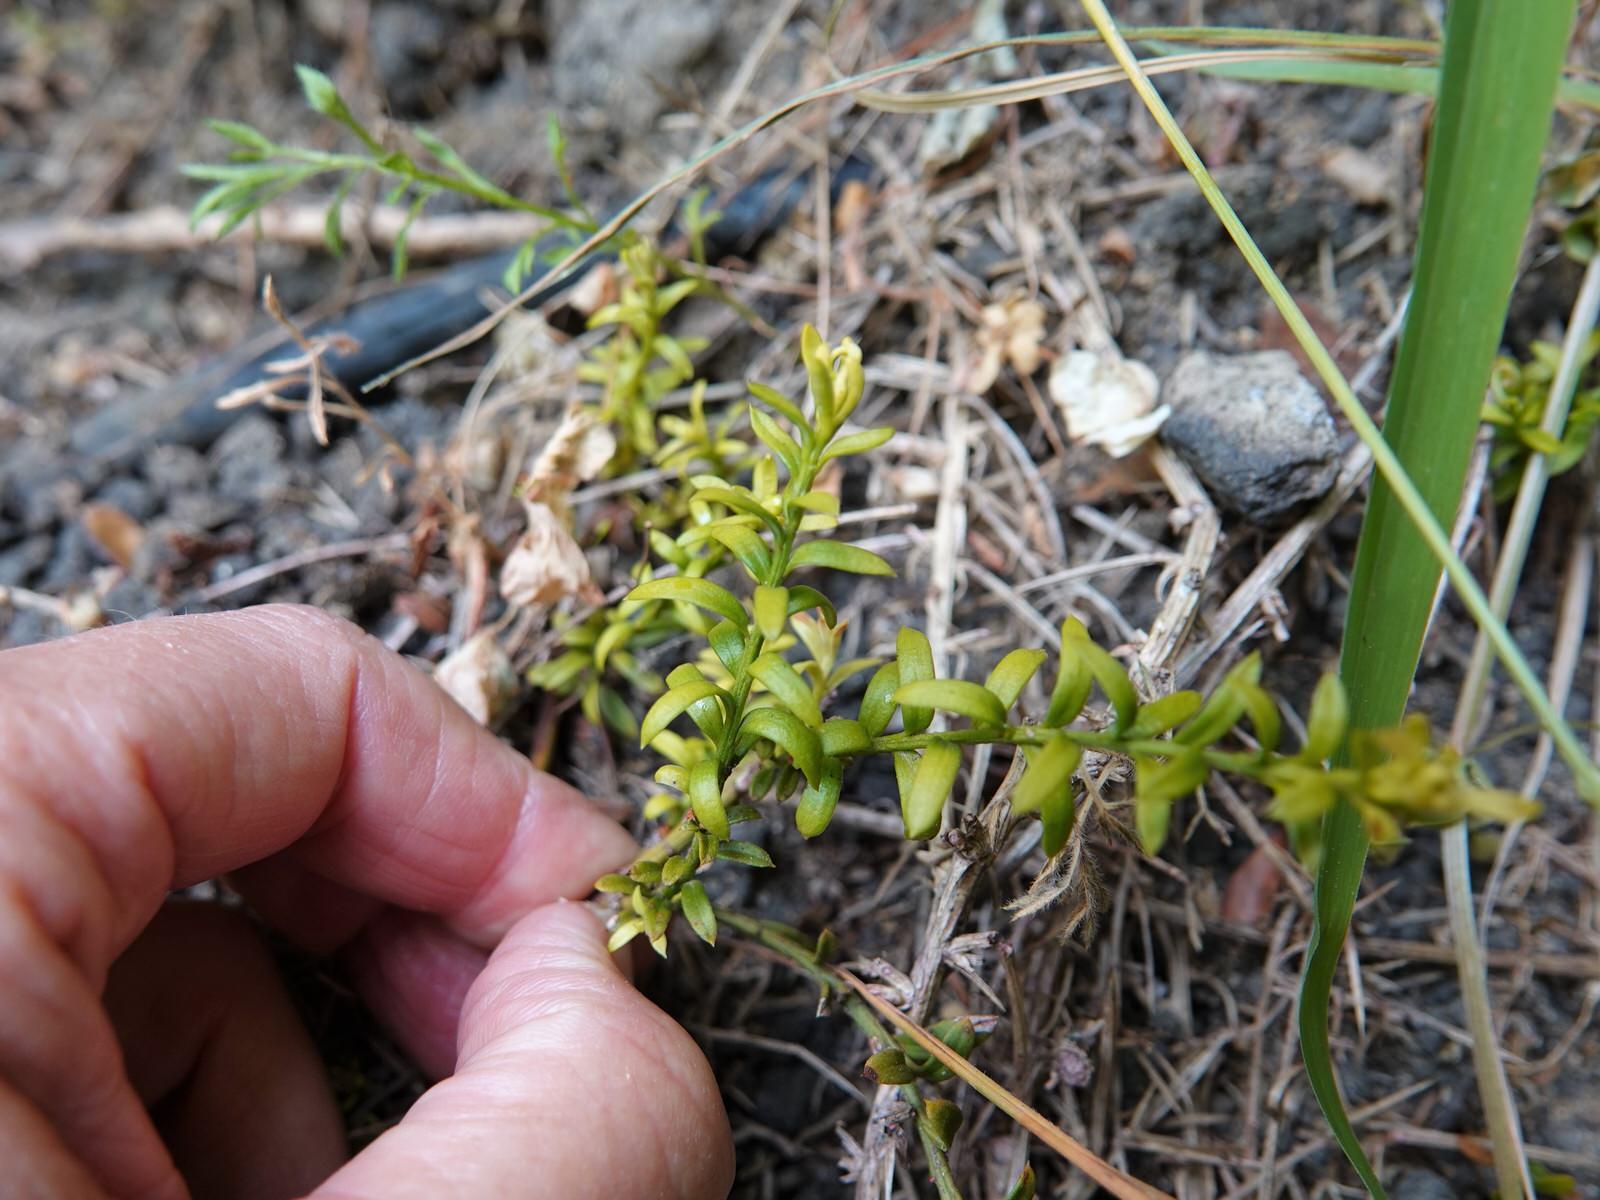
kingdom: Plantae
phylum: Tracheophyta
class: Pinopsida
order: Pinales
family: Podocarpaceae
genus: Podocarpus
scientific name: Podocarpus nivalis
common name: Alpine totara
